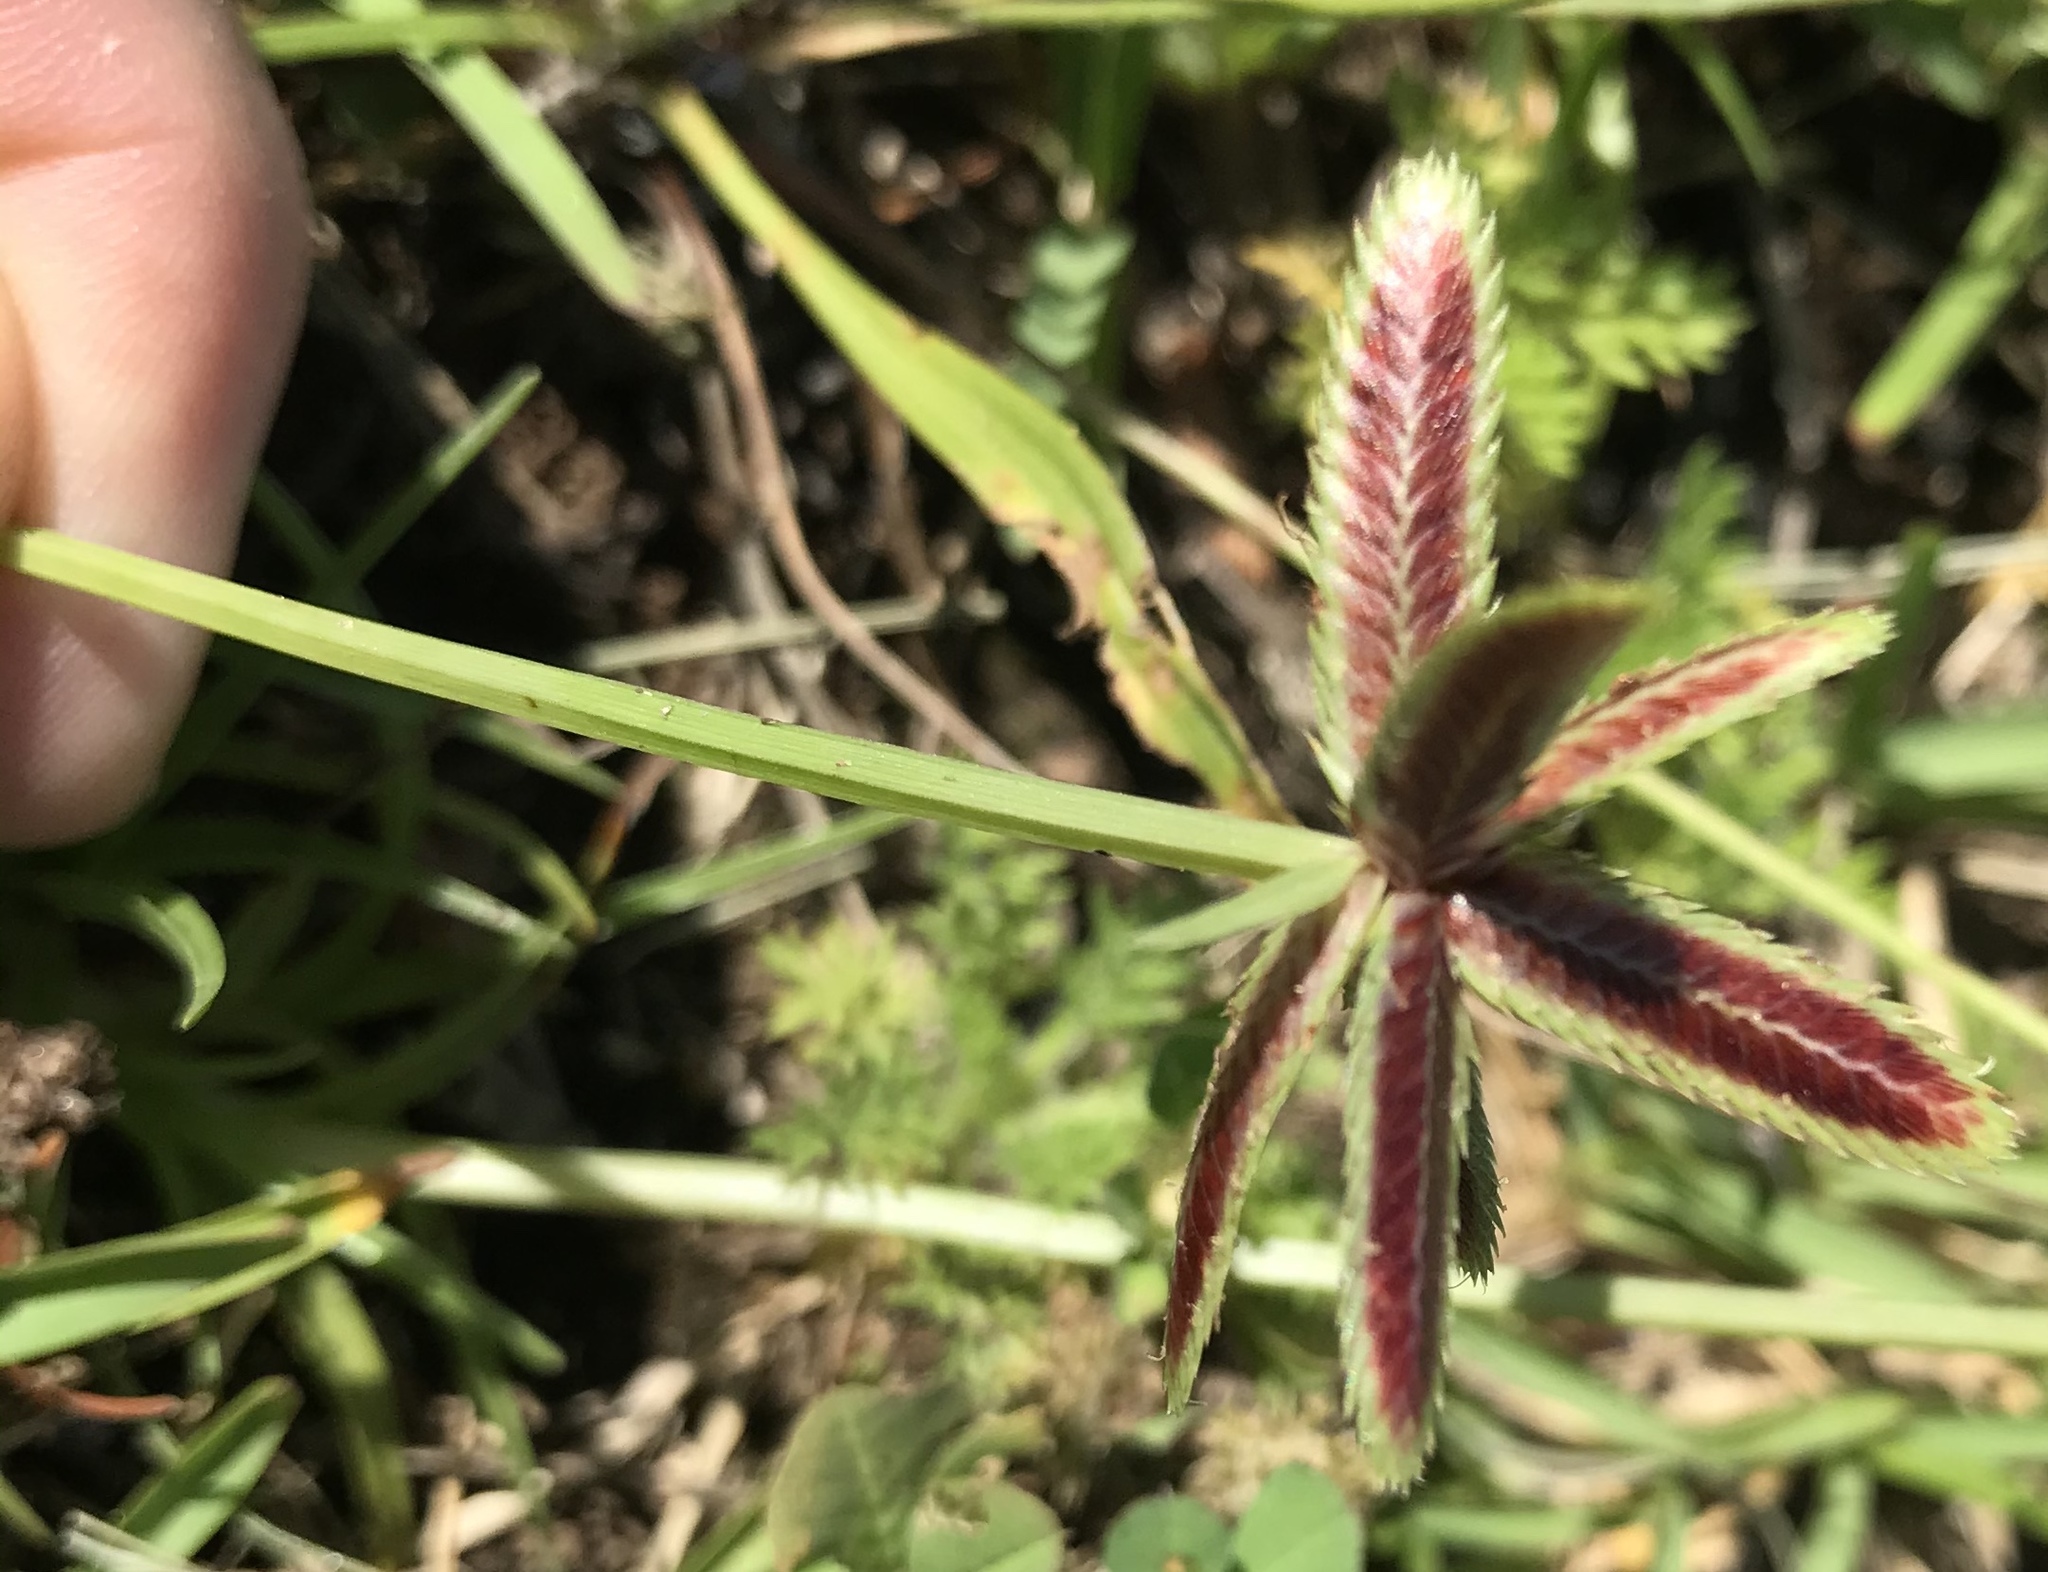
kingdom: Plantae
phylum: Tracheophyta
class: Liliopsida
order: Poales
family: Cyperaceae
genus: Cyperus
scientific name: Cyperus rubicundus
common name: Coco-grass
